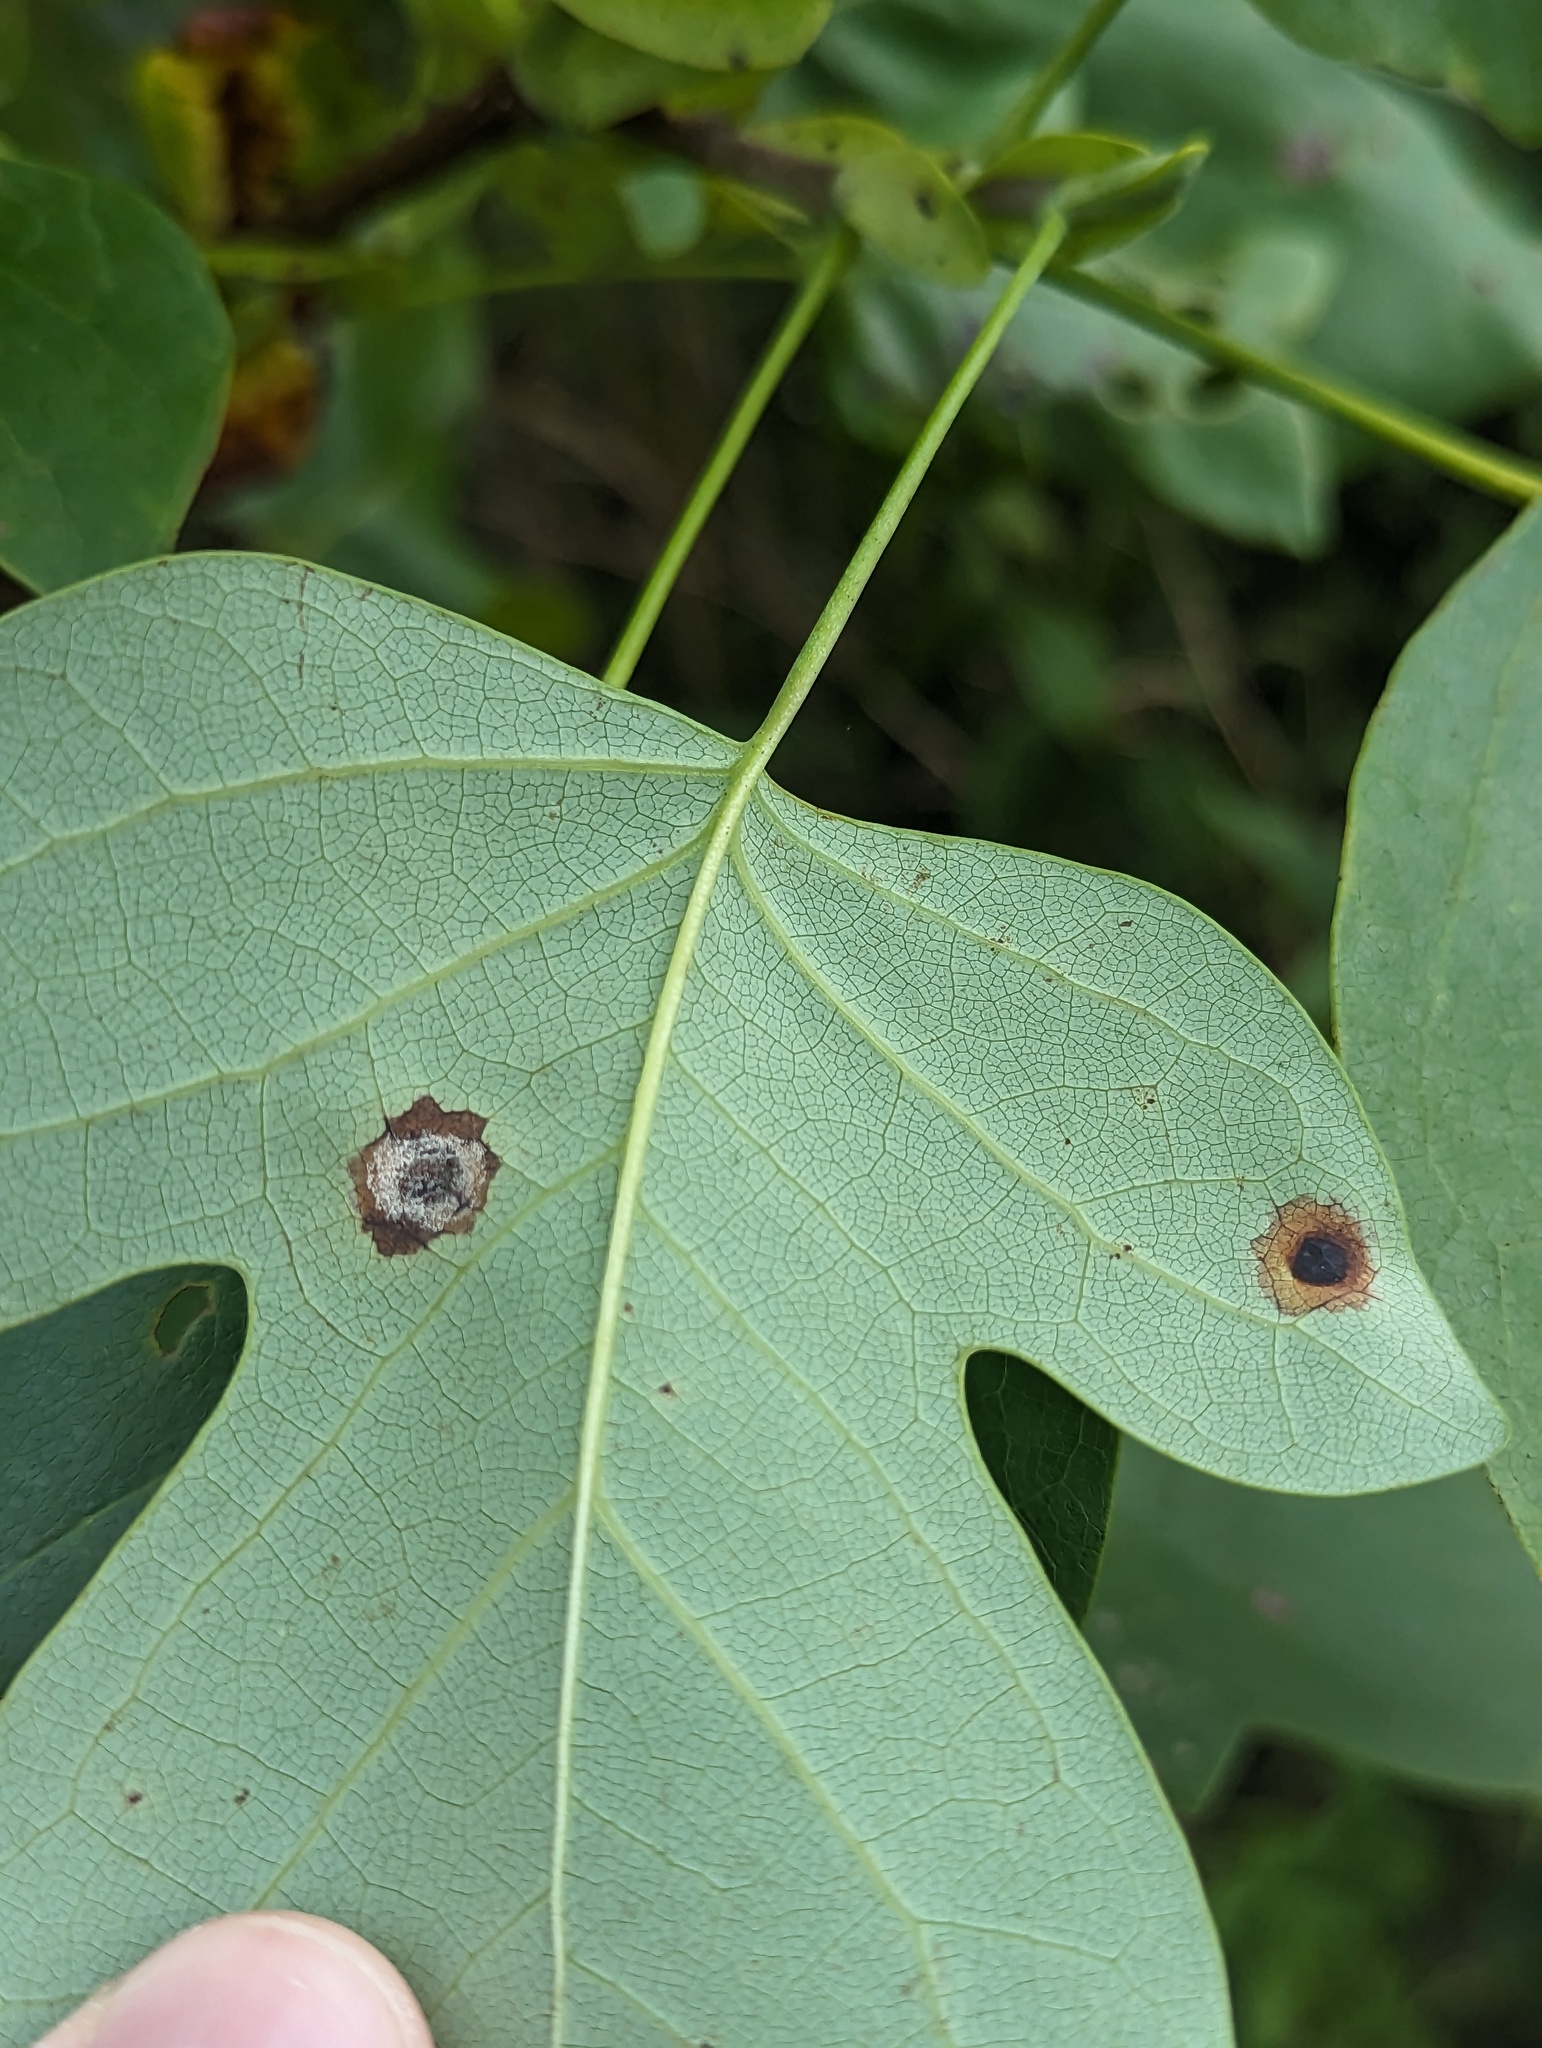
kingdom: Plantae
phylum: Tracheophyta
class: Magnoliopsida
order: Magnoliales
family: Magnoliaceae
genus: Liriodendron
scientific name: Liriodendron tulipifera
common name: Tulip tree
